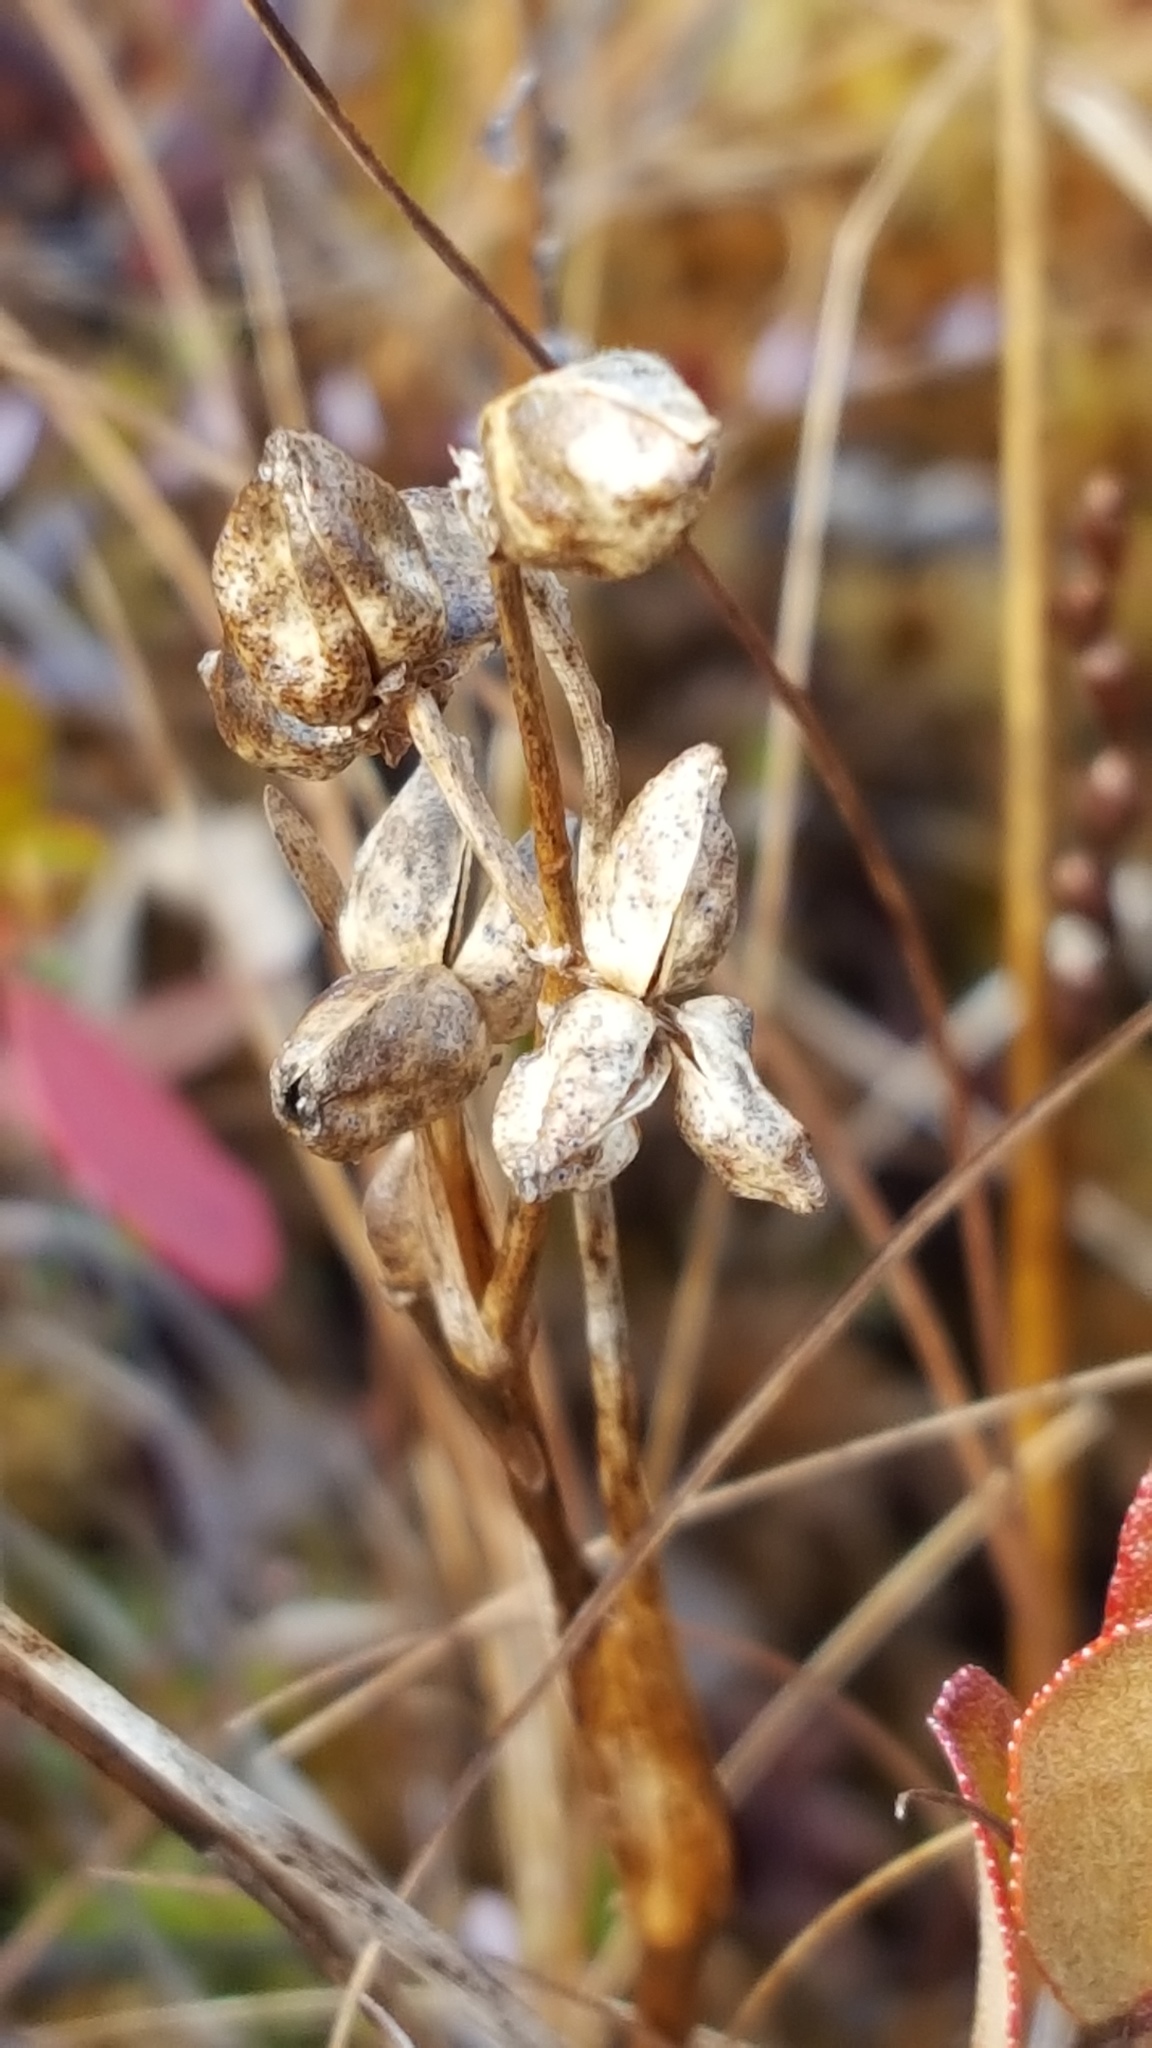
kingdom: Plantae
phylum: Tracheophyta
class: Liliopsida
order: Alismatales
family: Scheuchzeriaceae
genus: Scheuchzeria
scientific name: Scheuchzeria palustris
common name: Rannoch-rush
